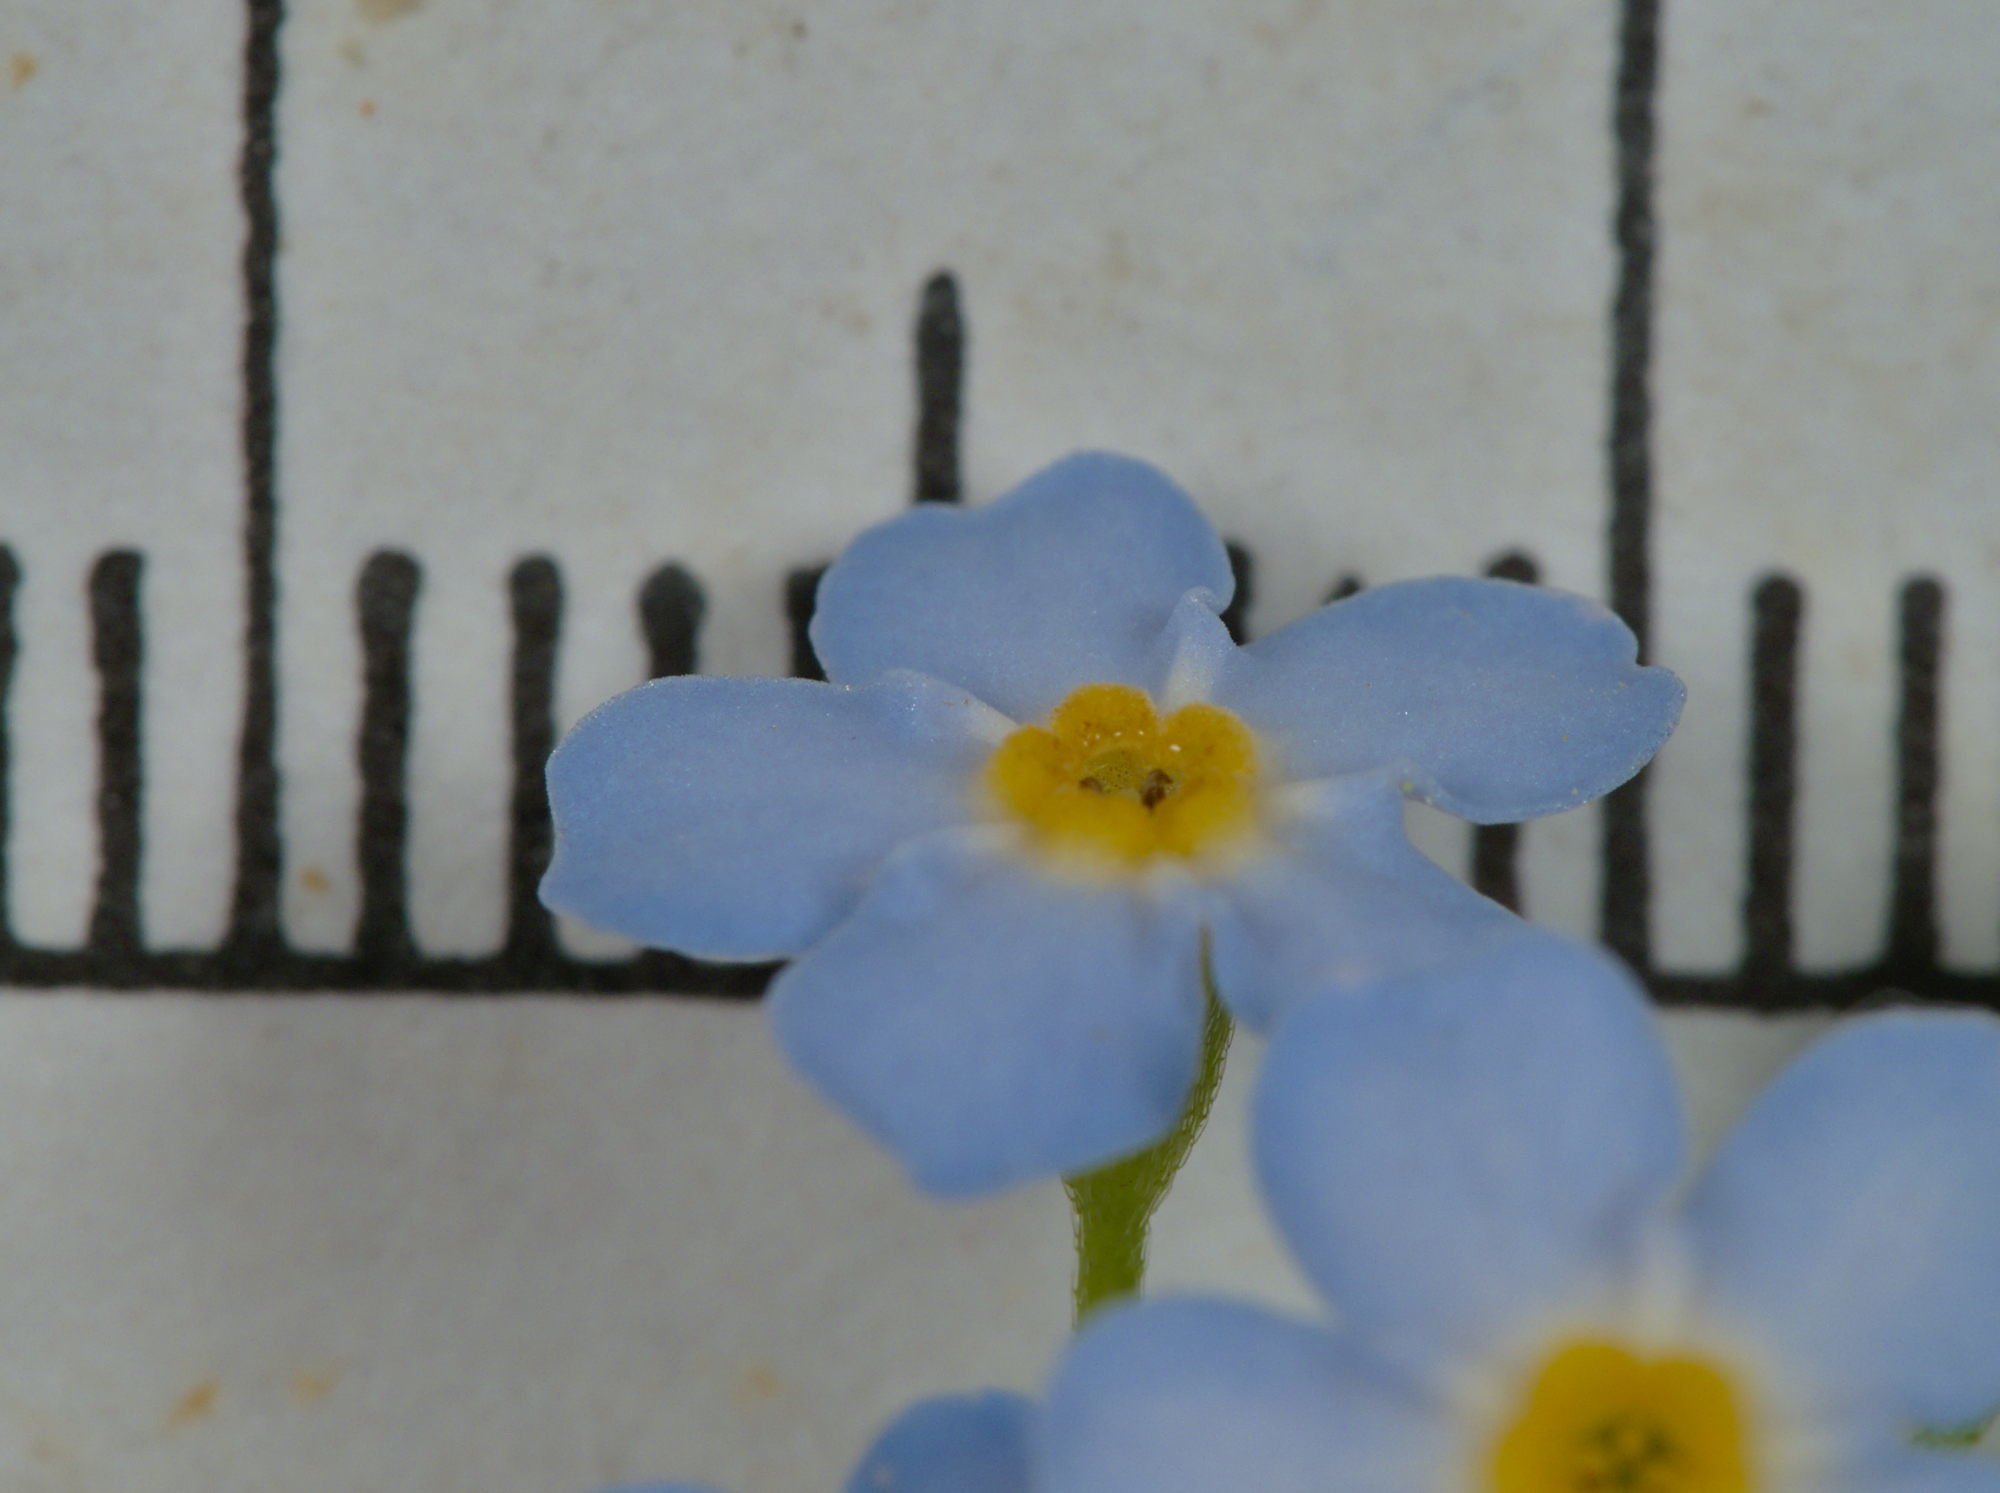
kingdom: Plantae
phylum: Tracheophyta
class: Magnoliopsida
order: Boraginales
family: Boraginaceae
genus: Myosotis
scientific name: Myosotis scorpioides
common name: Water forget-me-not
